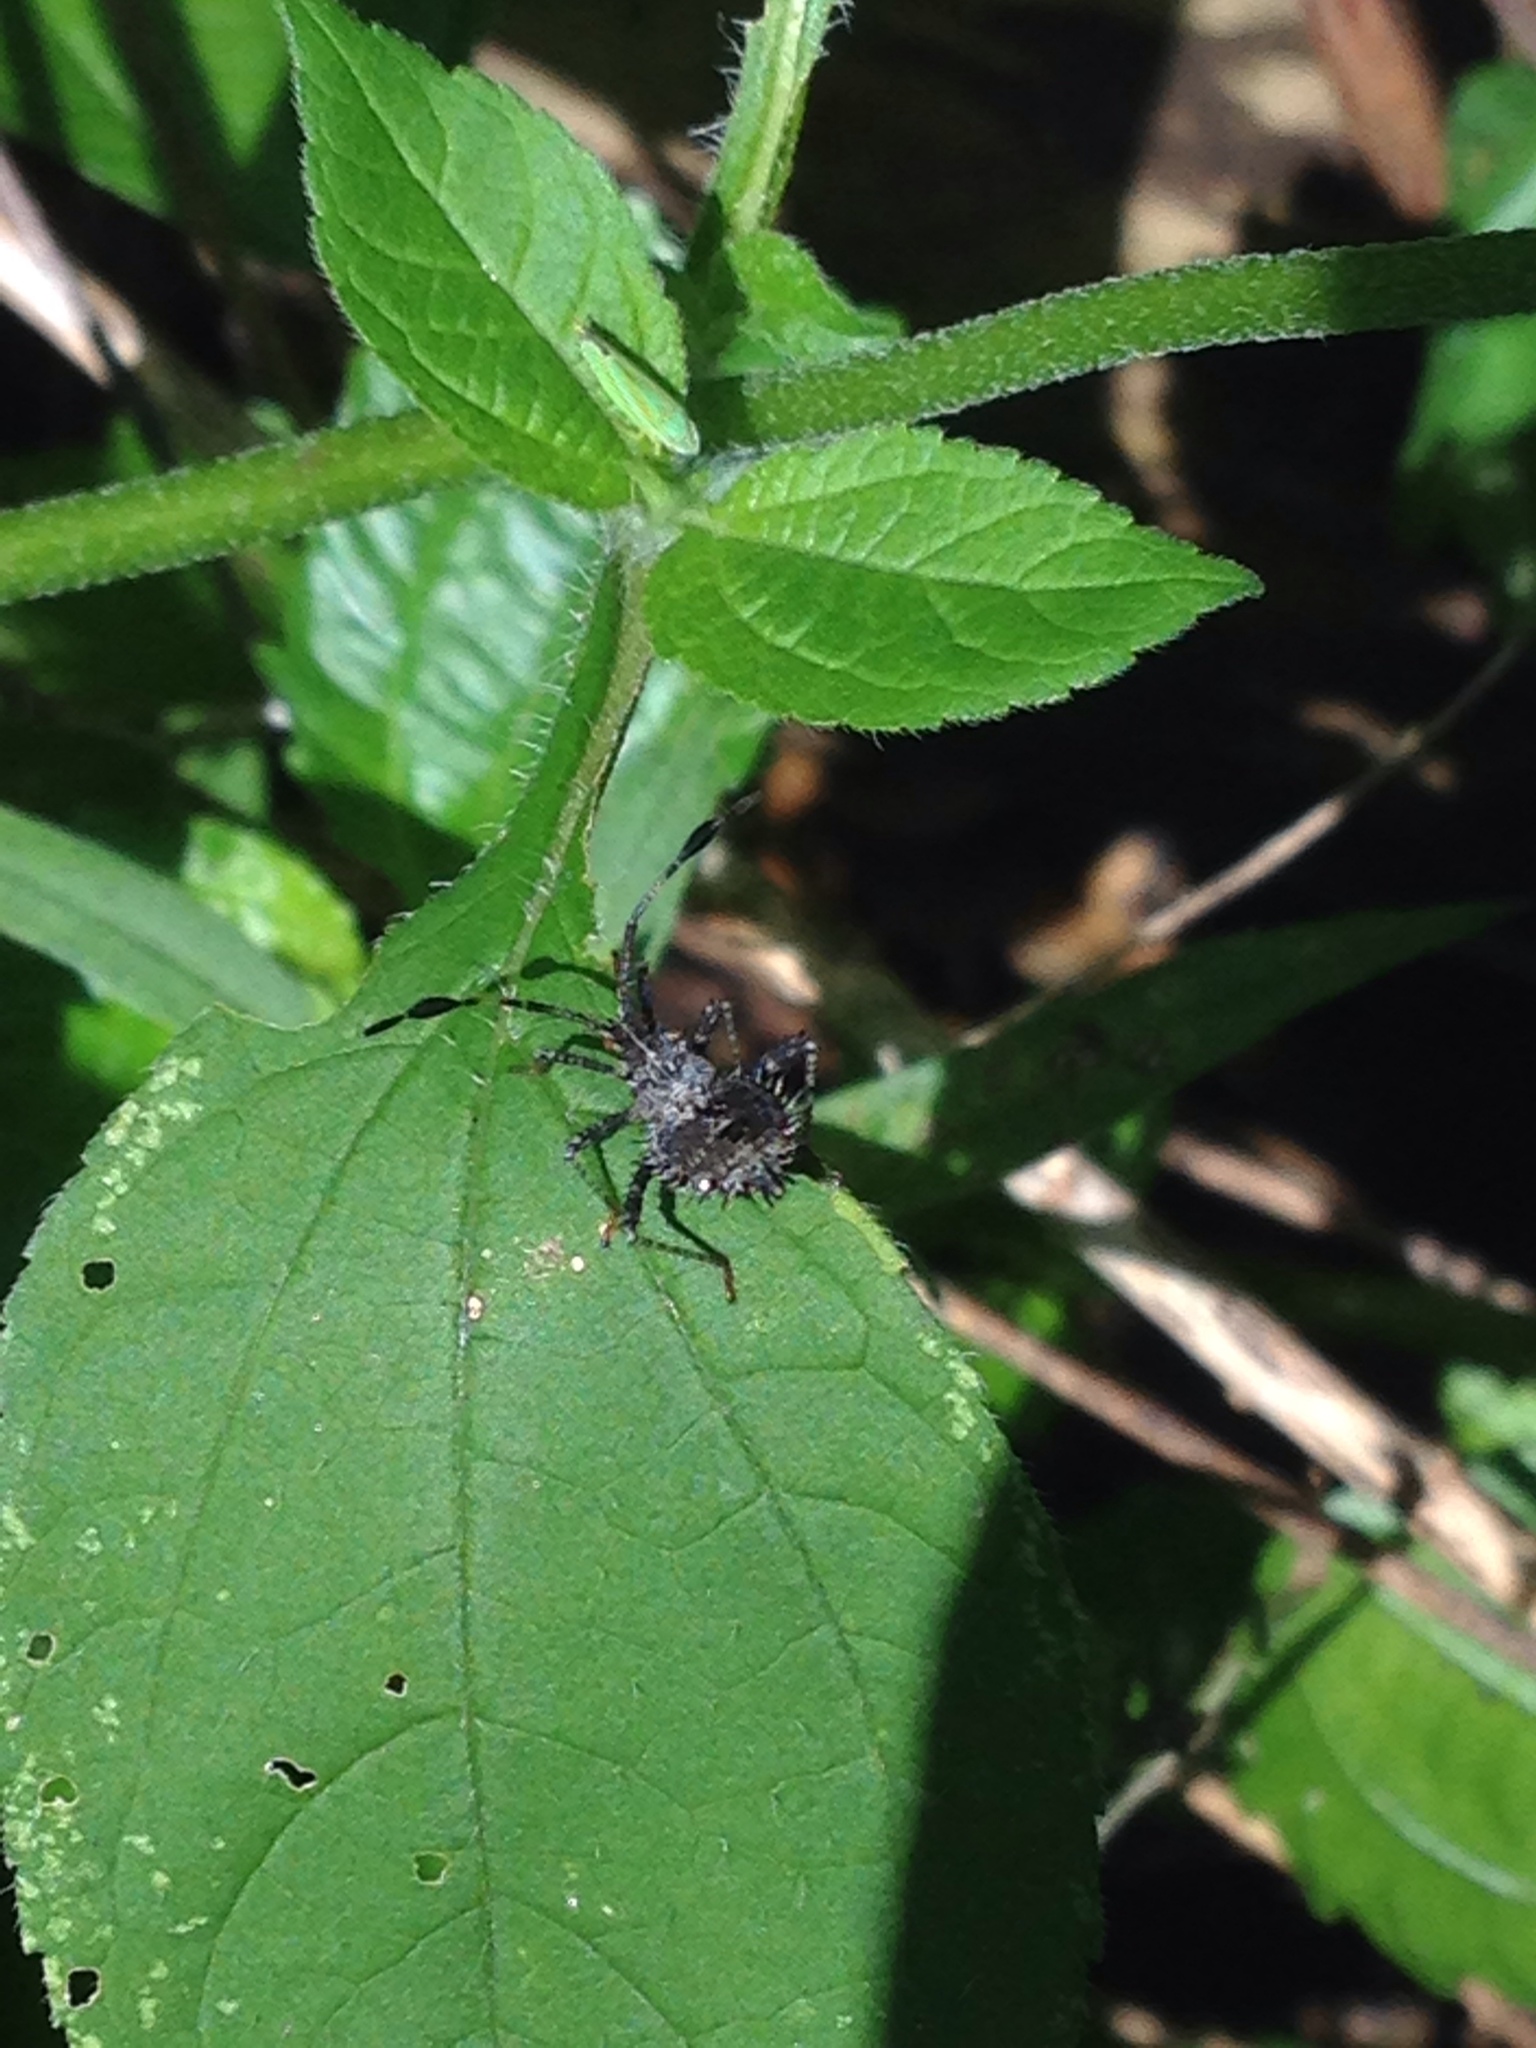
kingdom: Animalia
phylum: Arthropoda
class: Insecta
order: Hemiptera
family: Coreidae
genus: Euthochtha
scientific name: Euthochtha galeator
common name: Helmeted squash bug
